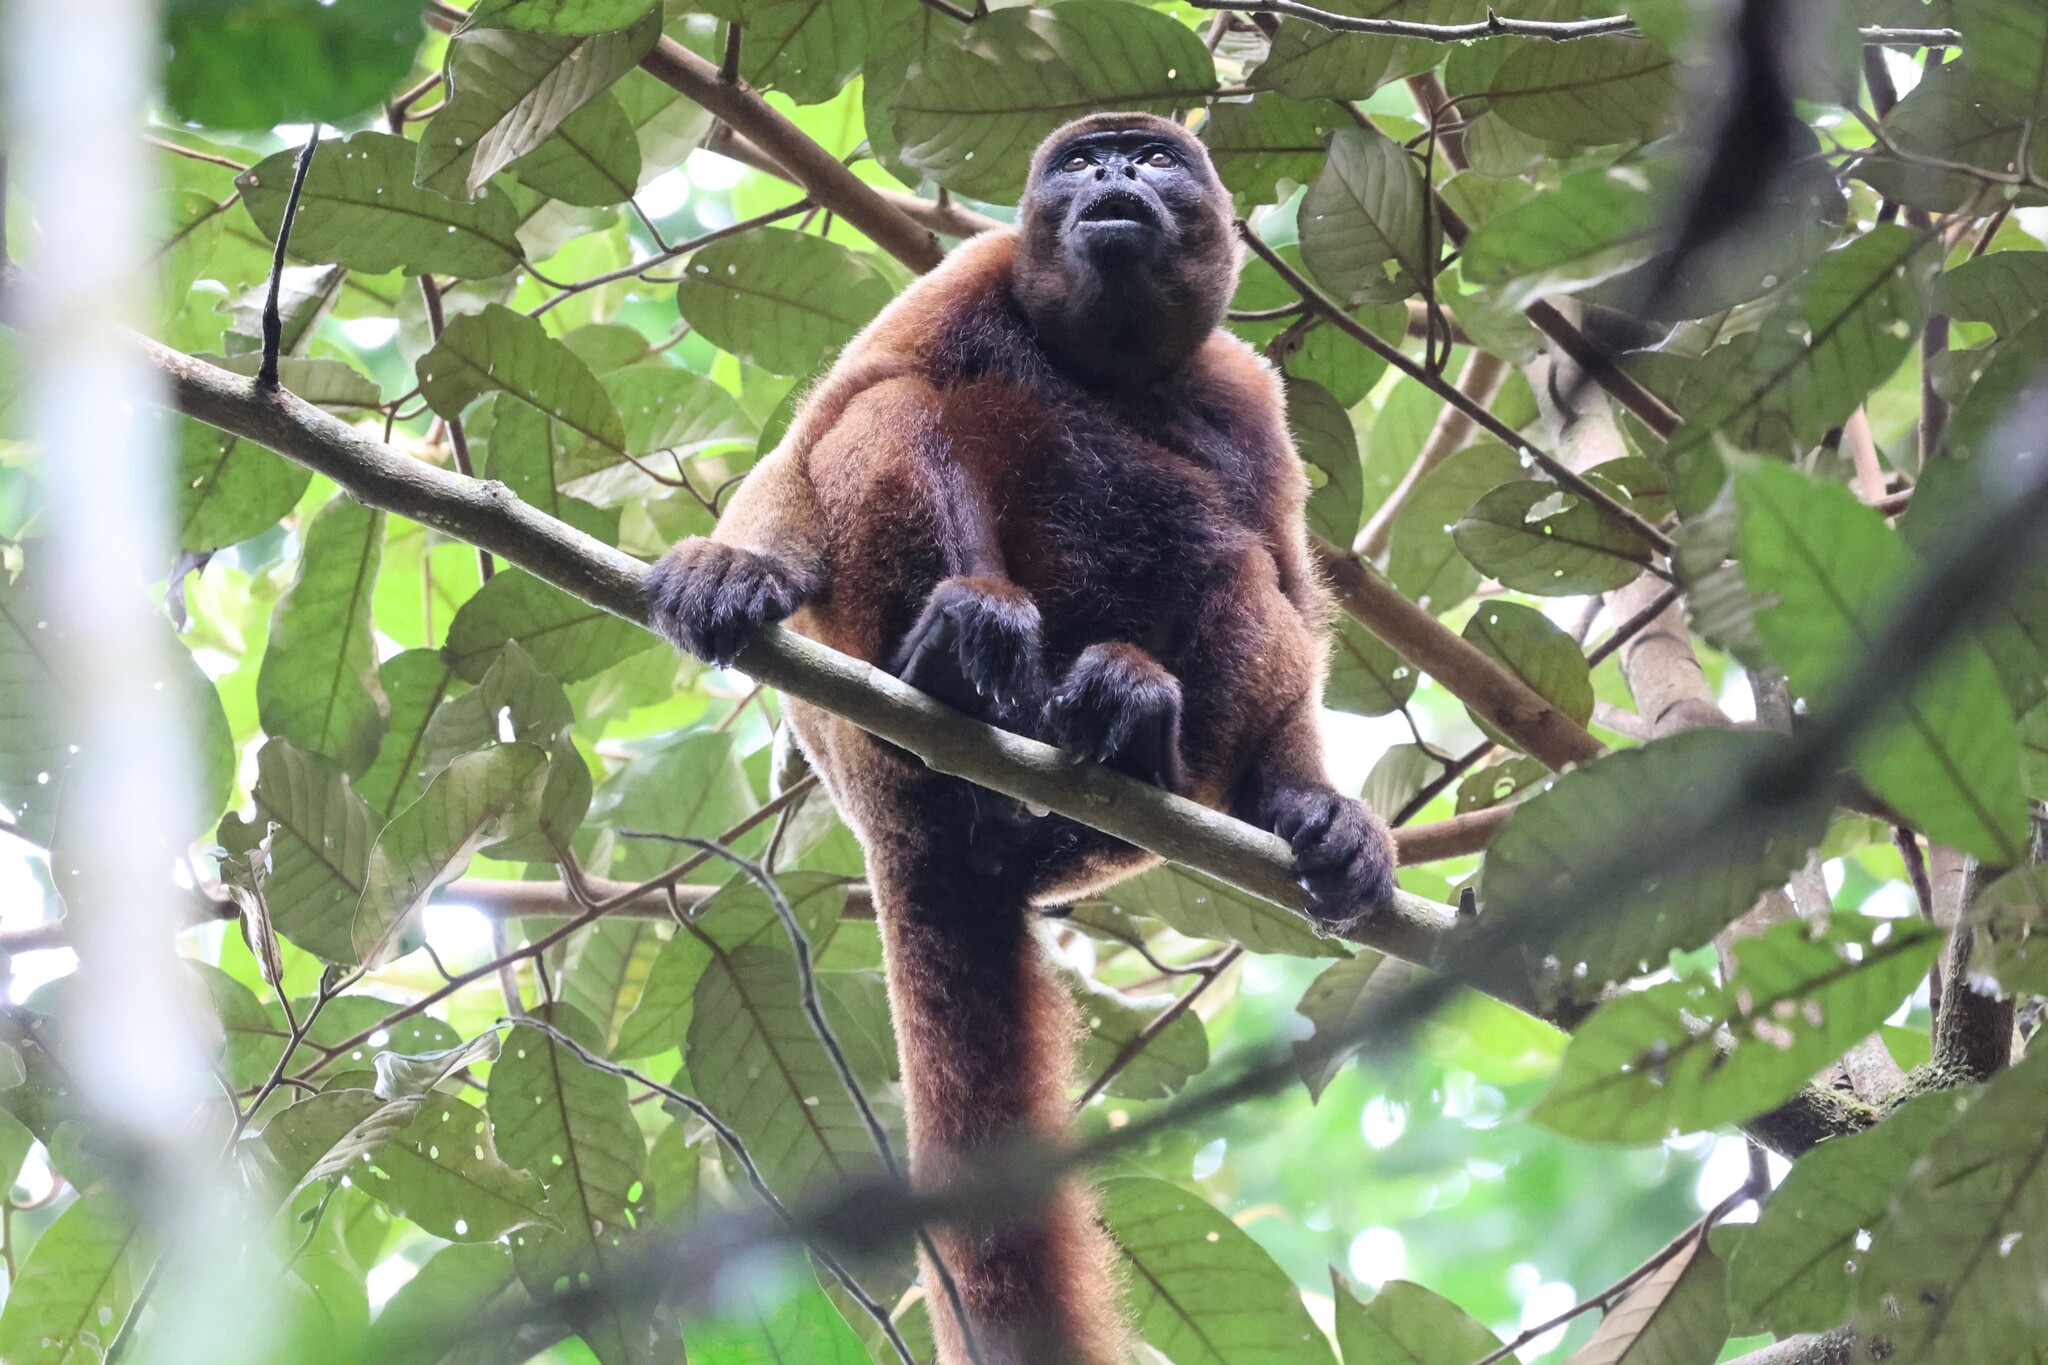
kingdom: Animalia
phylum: Chordata
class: Mammalia
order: Primates
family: Atelidae
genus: Lagothrix
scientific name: Lagothrix lagothricha
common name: Brown woolly monkey
